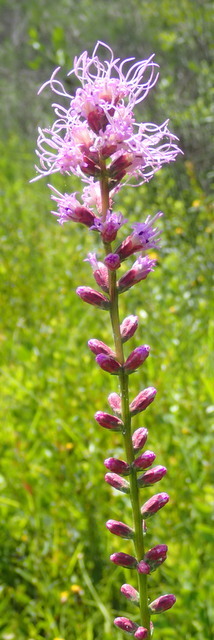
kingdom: Plantae
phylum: Tracheophyta
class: Magnoliopsida
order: Asterales
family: Asteraceae
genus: Liatris
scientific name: Liatris spicata
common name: Florist gayfeather
